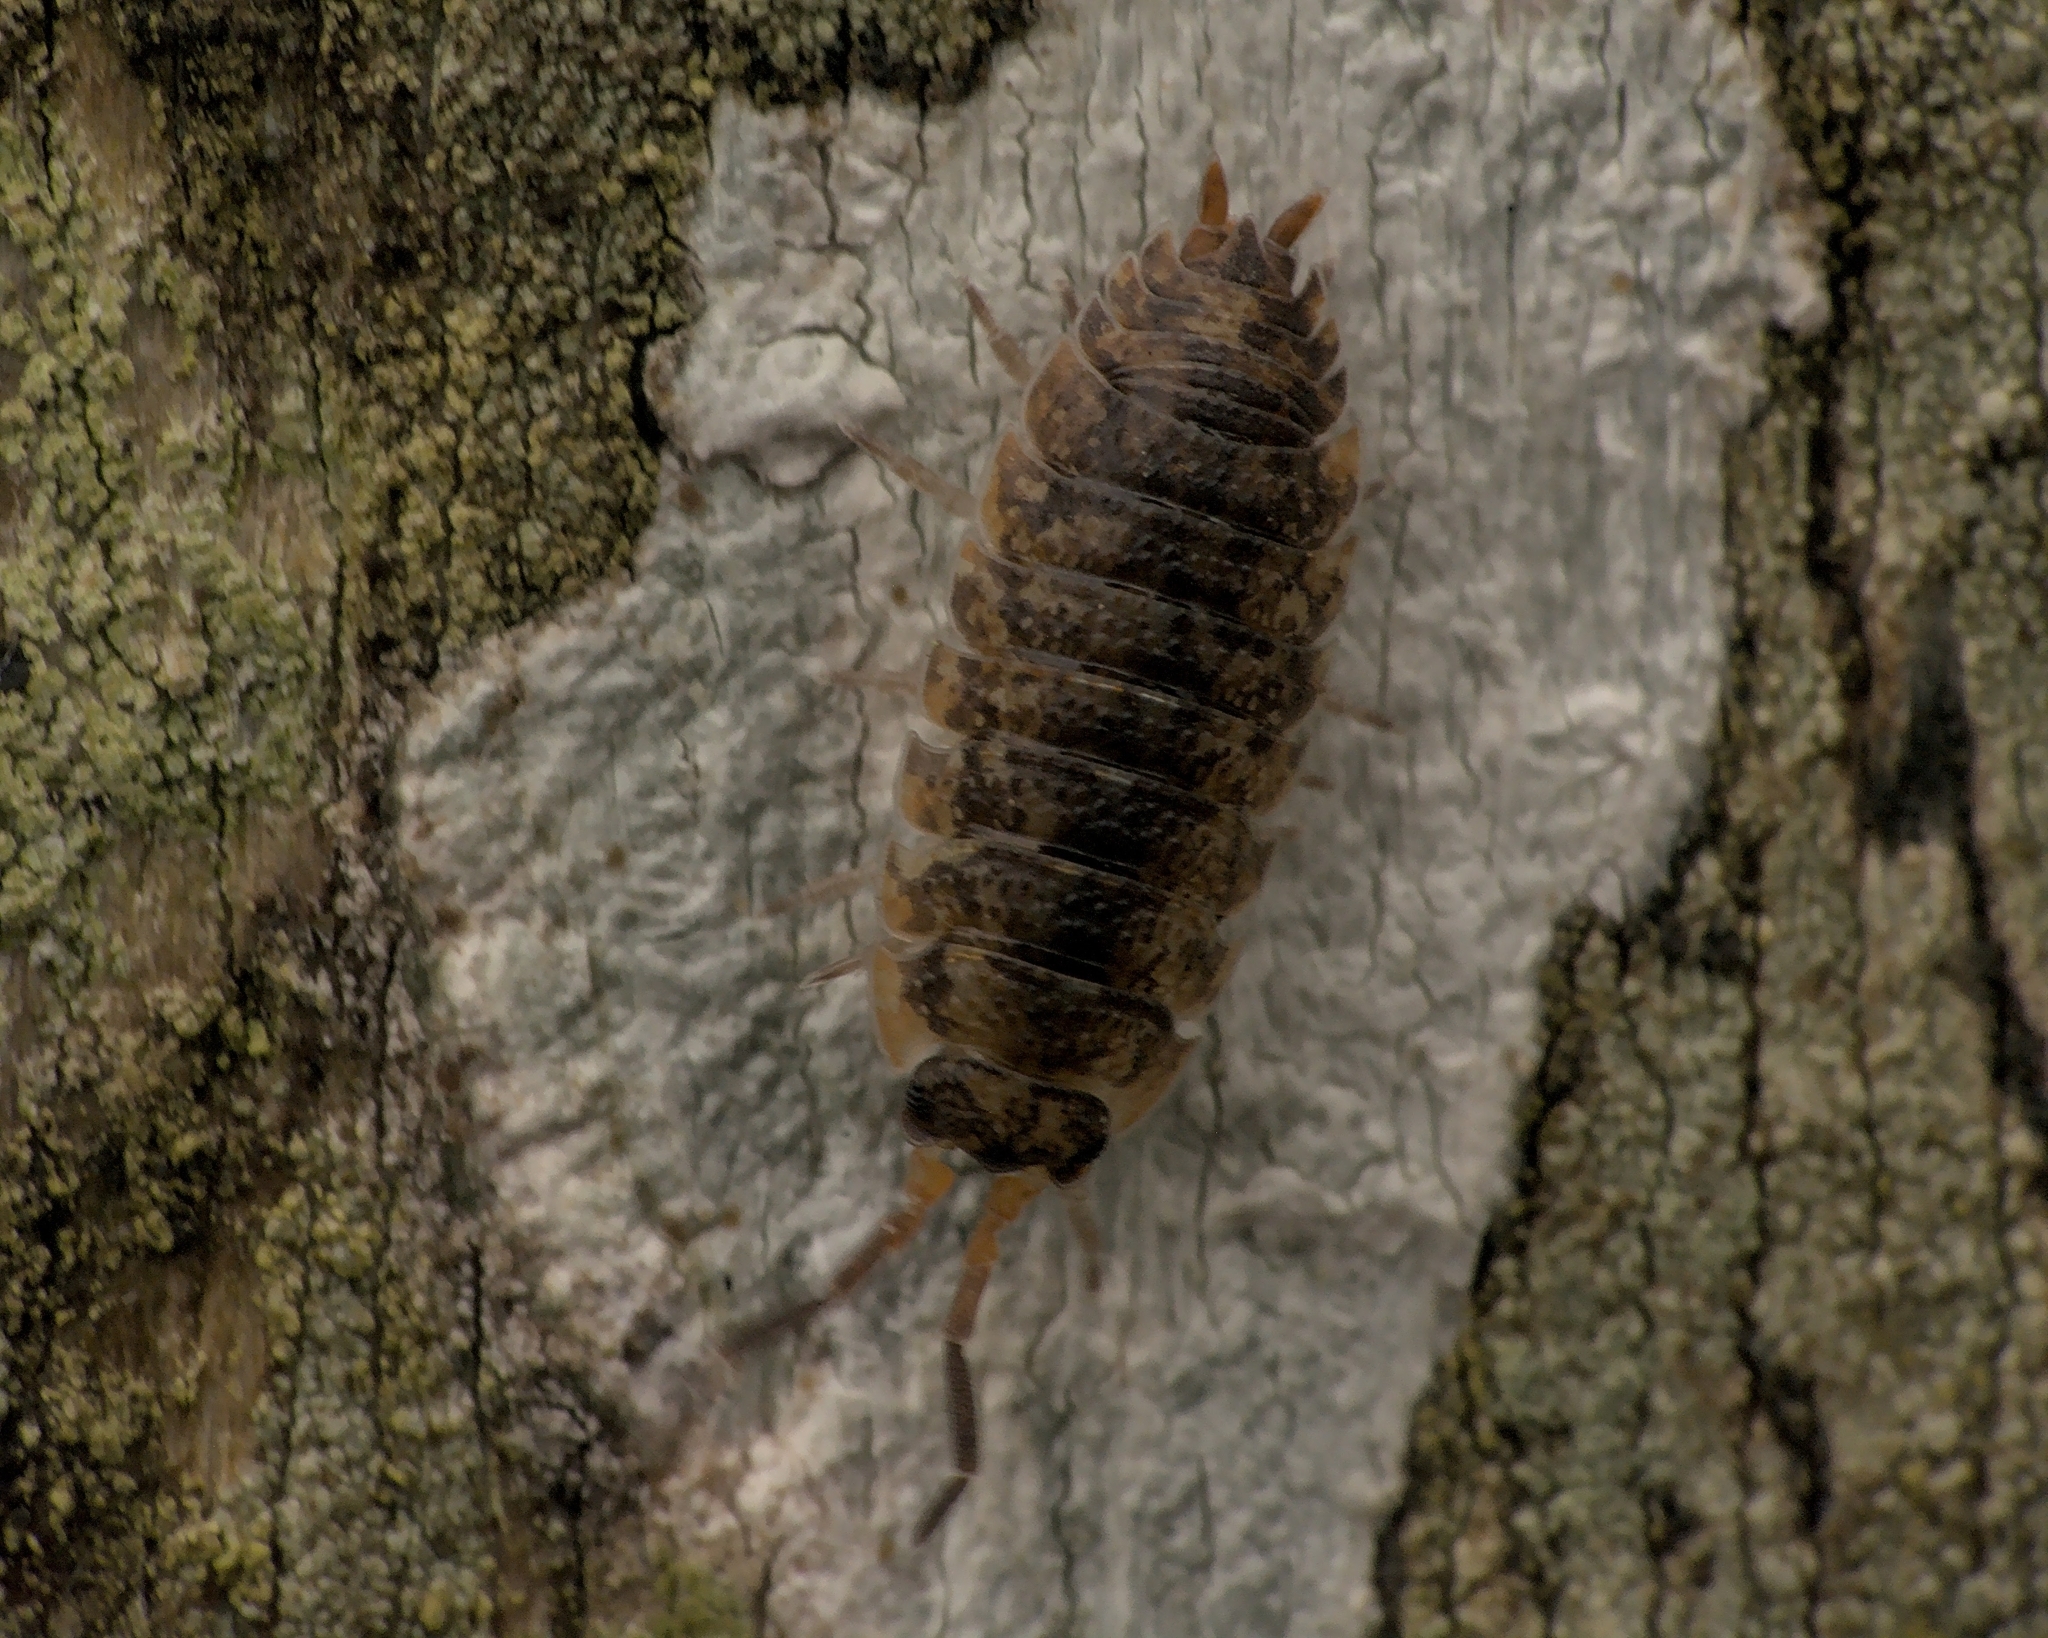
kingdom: Animalia
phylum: Arthropoda
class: Malacostraca
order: Isopoda
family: Porcellionidae
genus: Porcellio
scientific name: Porcellio scaber
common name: Common rough woodlouse
